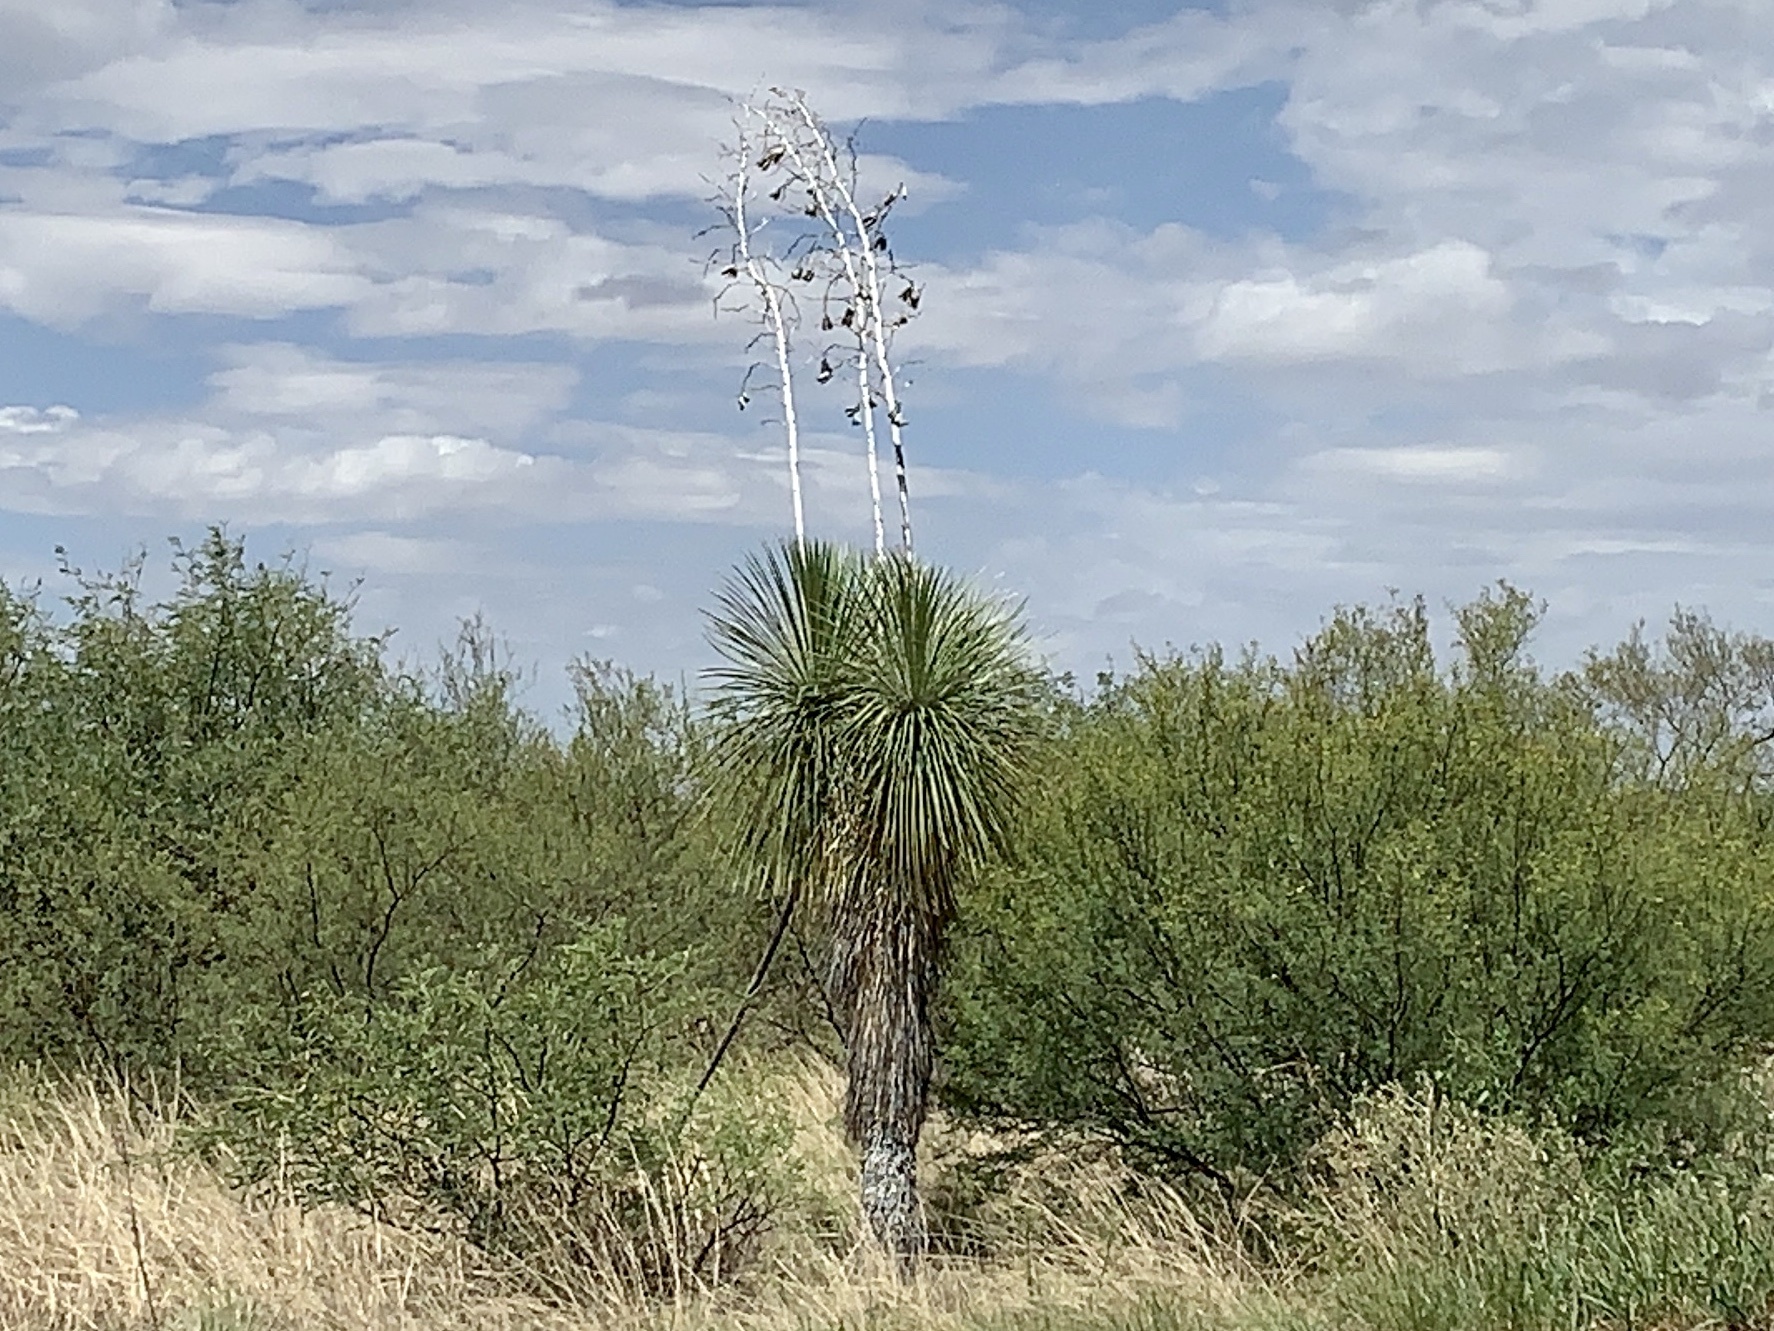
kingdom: Plantae
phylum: Tracheophyta
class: Liliopsida
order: Asparagales
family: Asparagaceae
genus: Yucca
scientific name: Yucca elata
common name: Palmella
